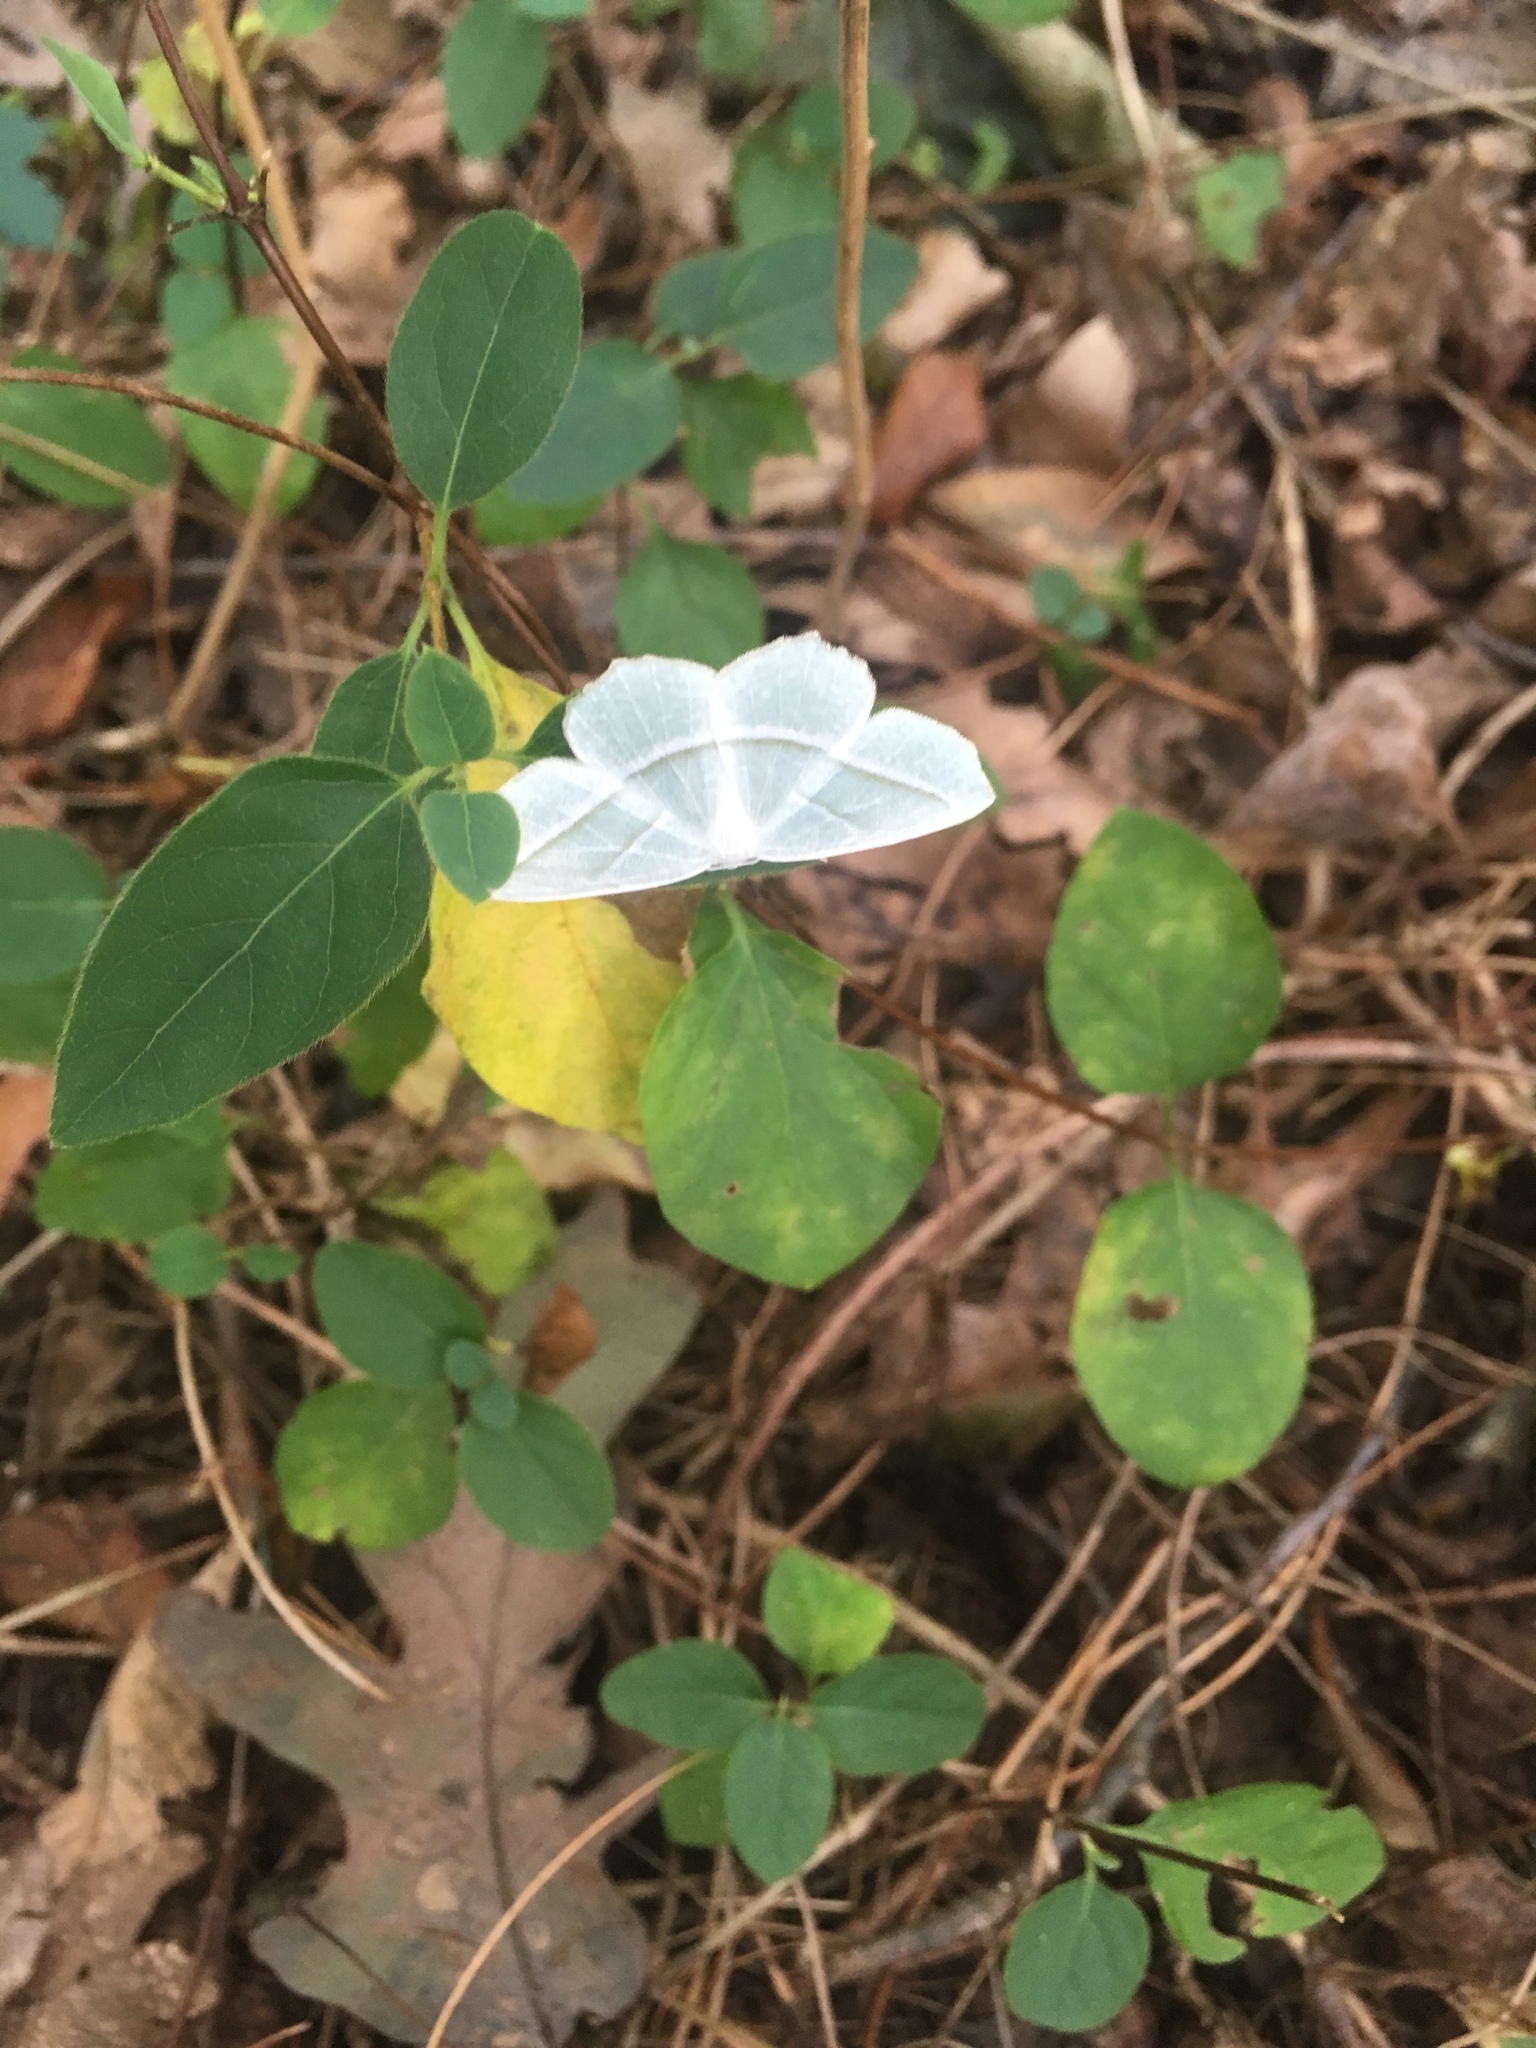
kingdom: Animalia
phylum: Arthropoda
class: Insecta
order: Lepidoptera
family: Geometridae
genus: Campaea
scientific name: Campaea perlata
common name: Fringed looper
